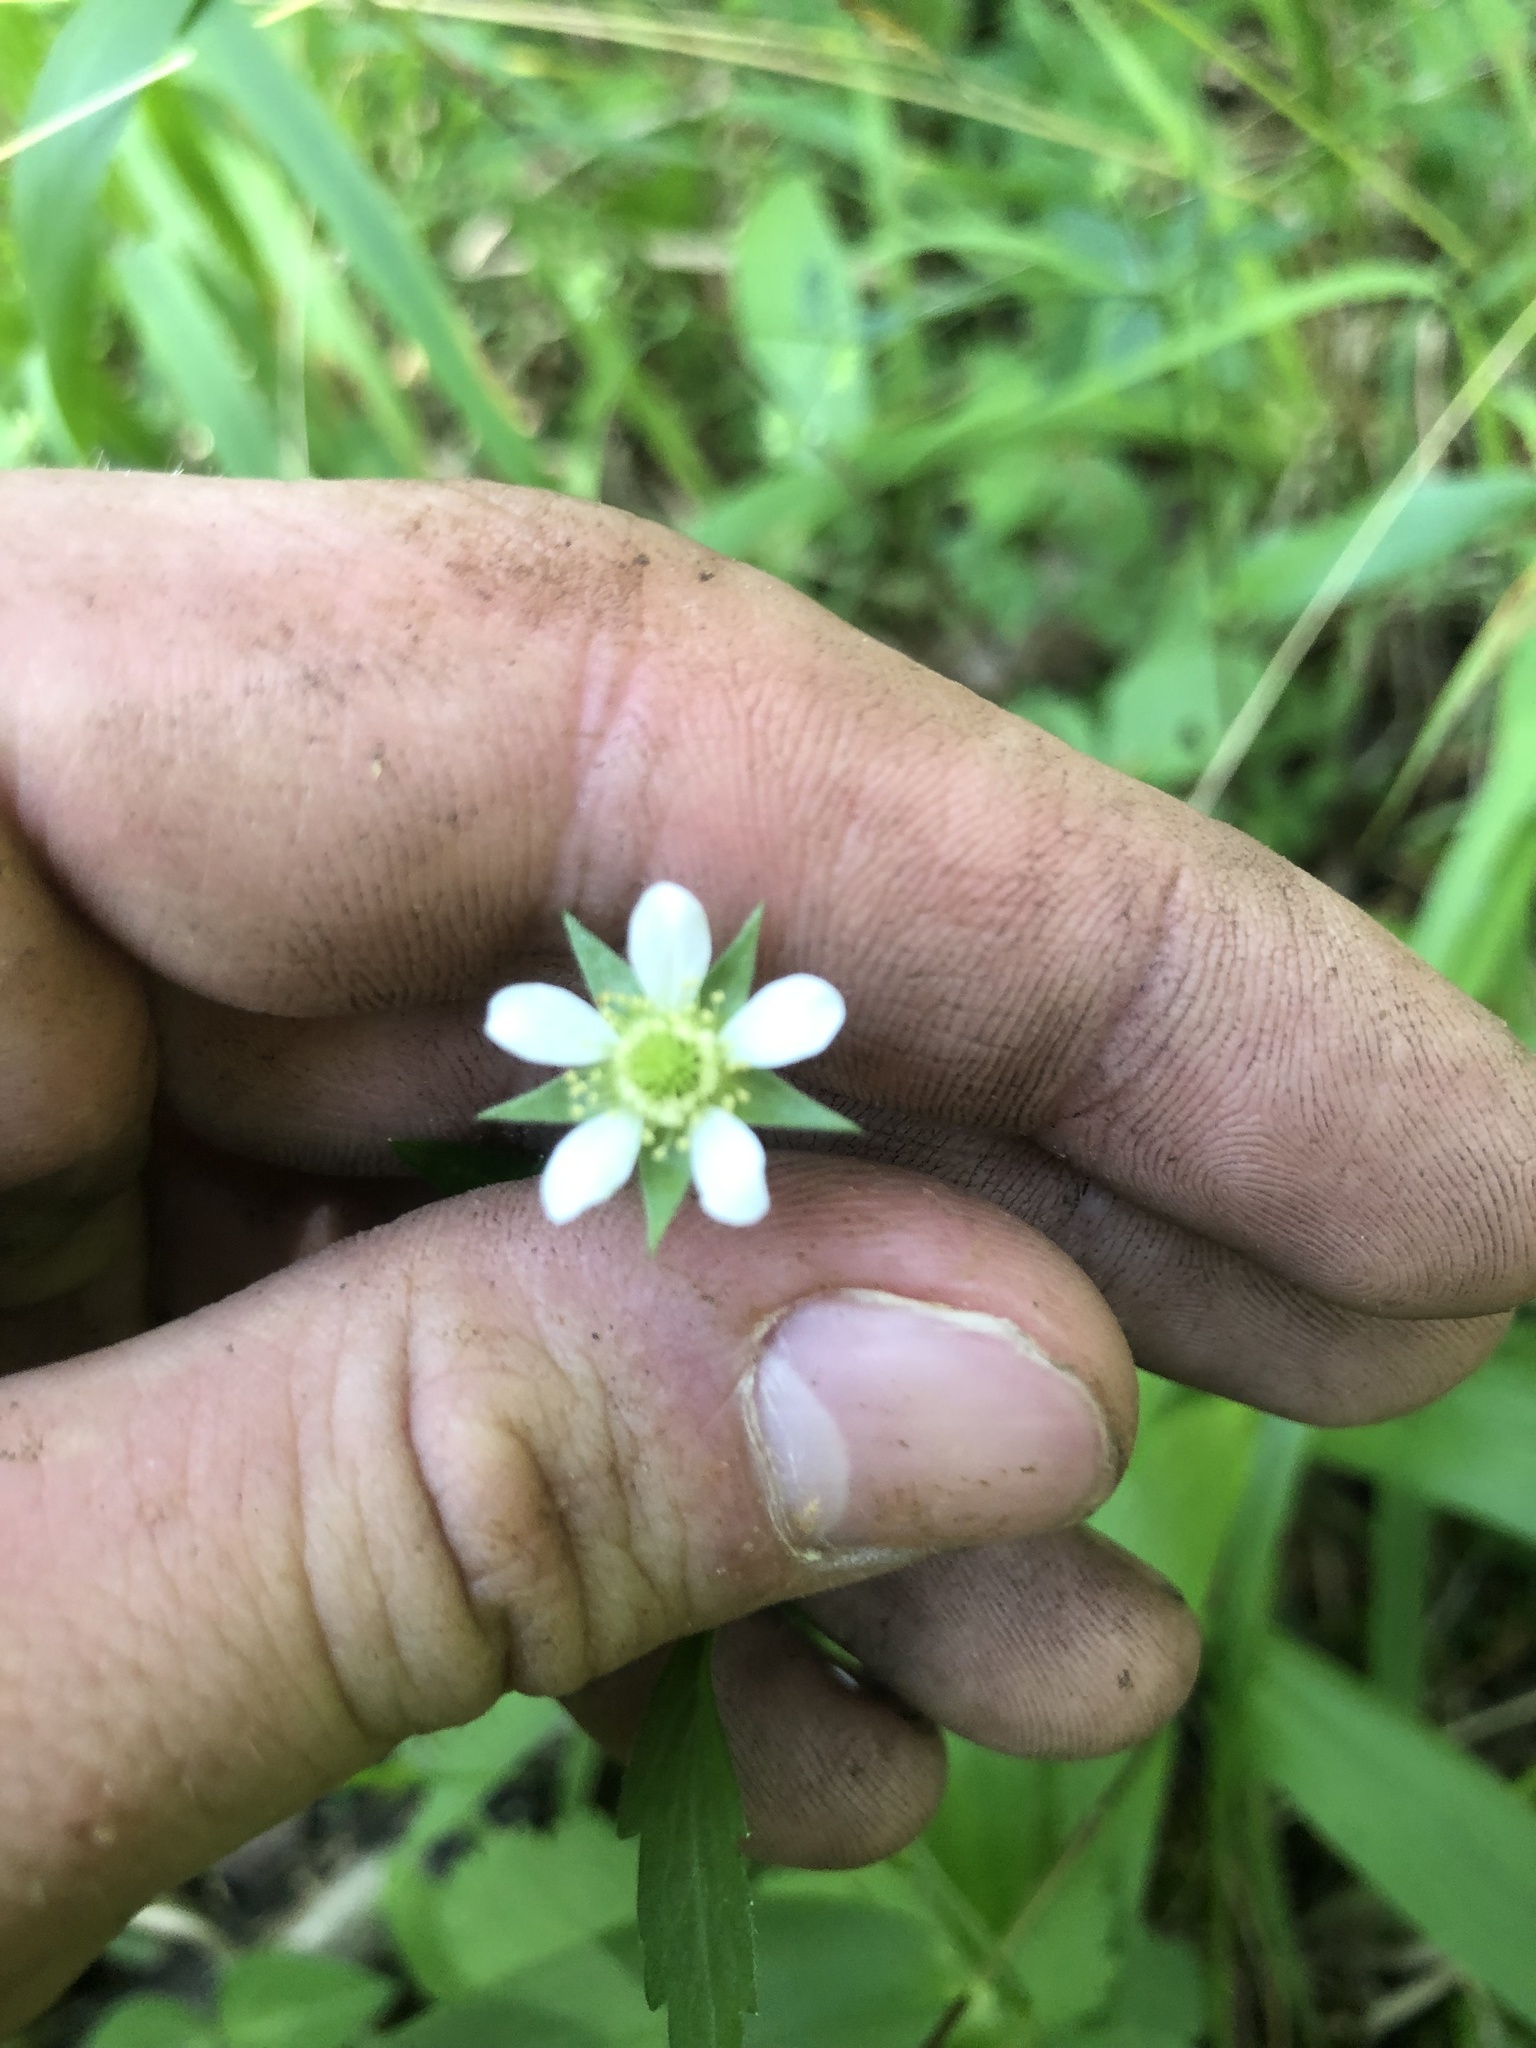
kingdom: Plantae
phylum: Tracheophyta
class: Magnoliopsida
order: Rosales
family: Rosaceae
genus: Geum
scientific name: Geum canadense
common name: White avens
